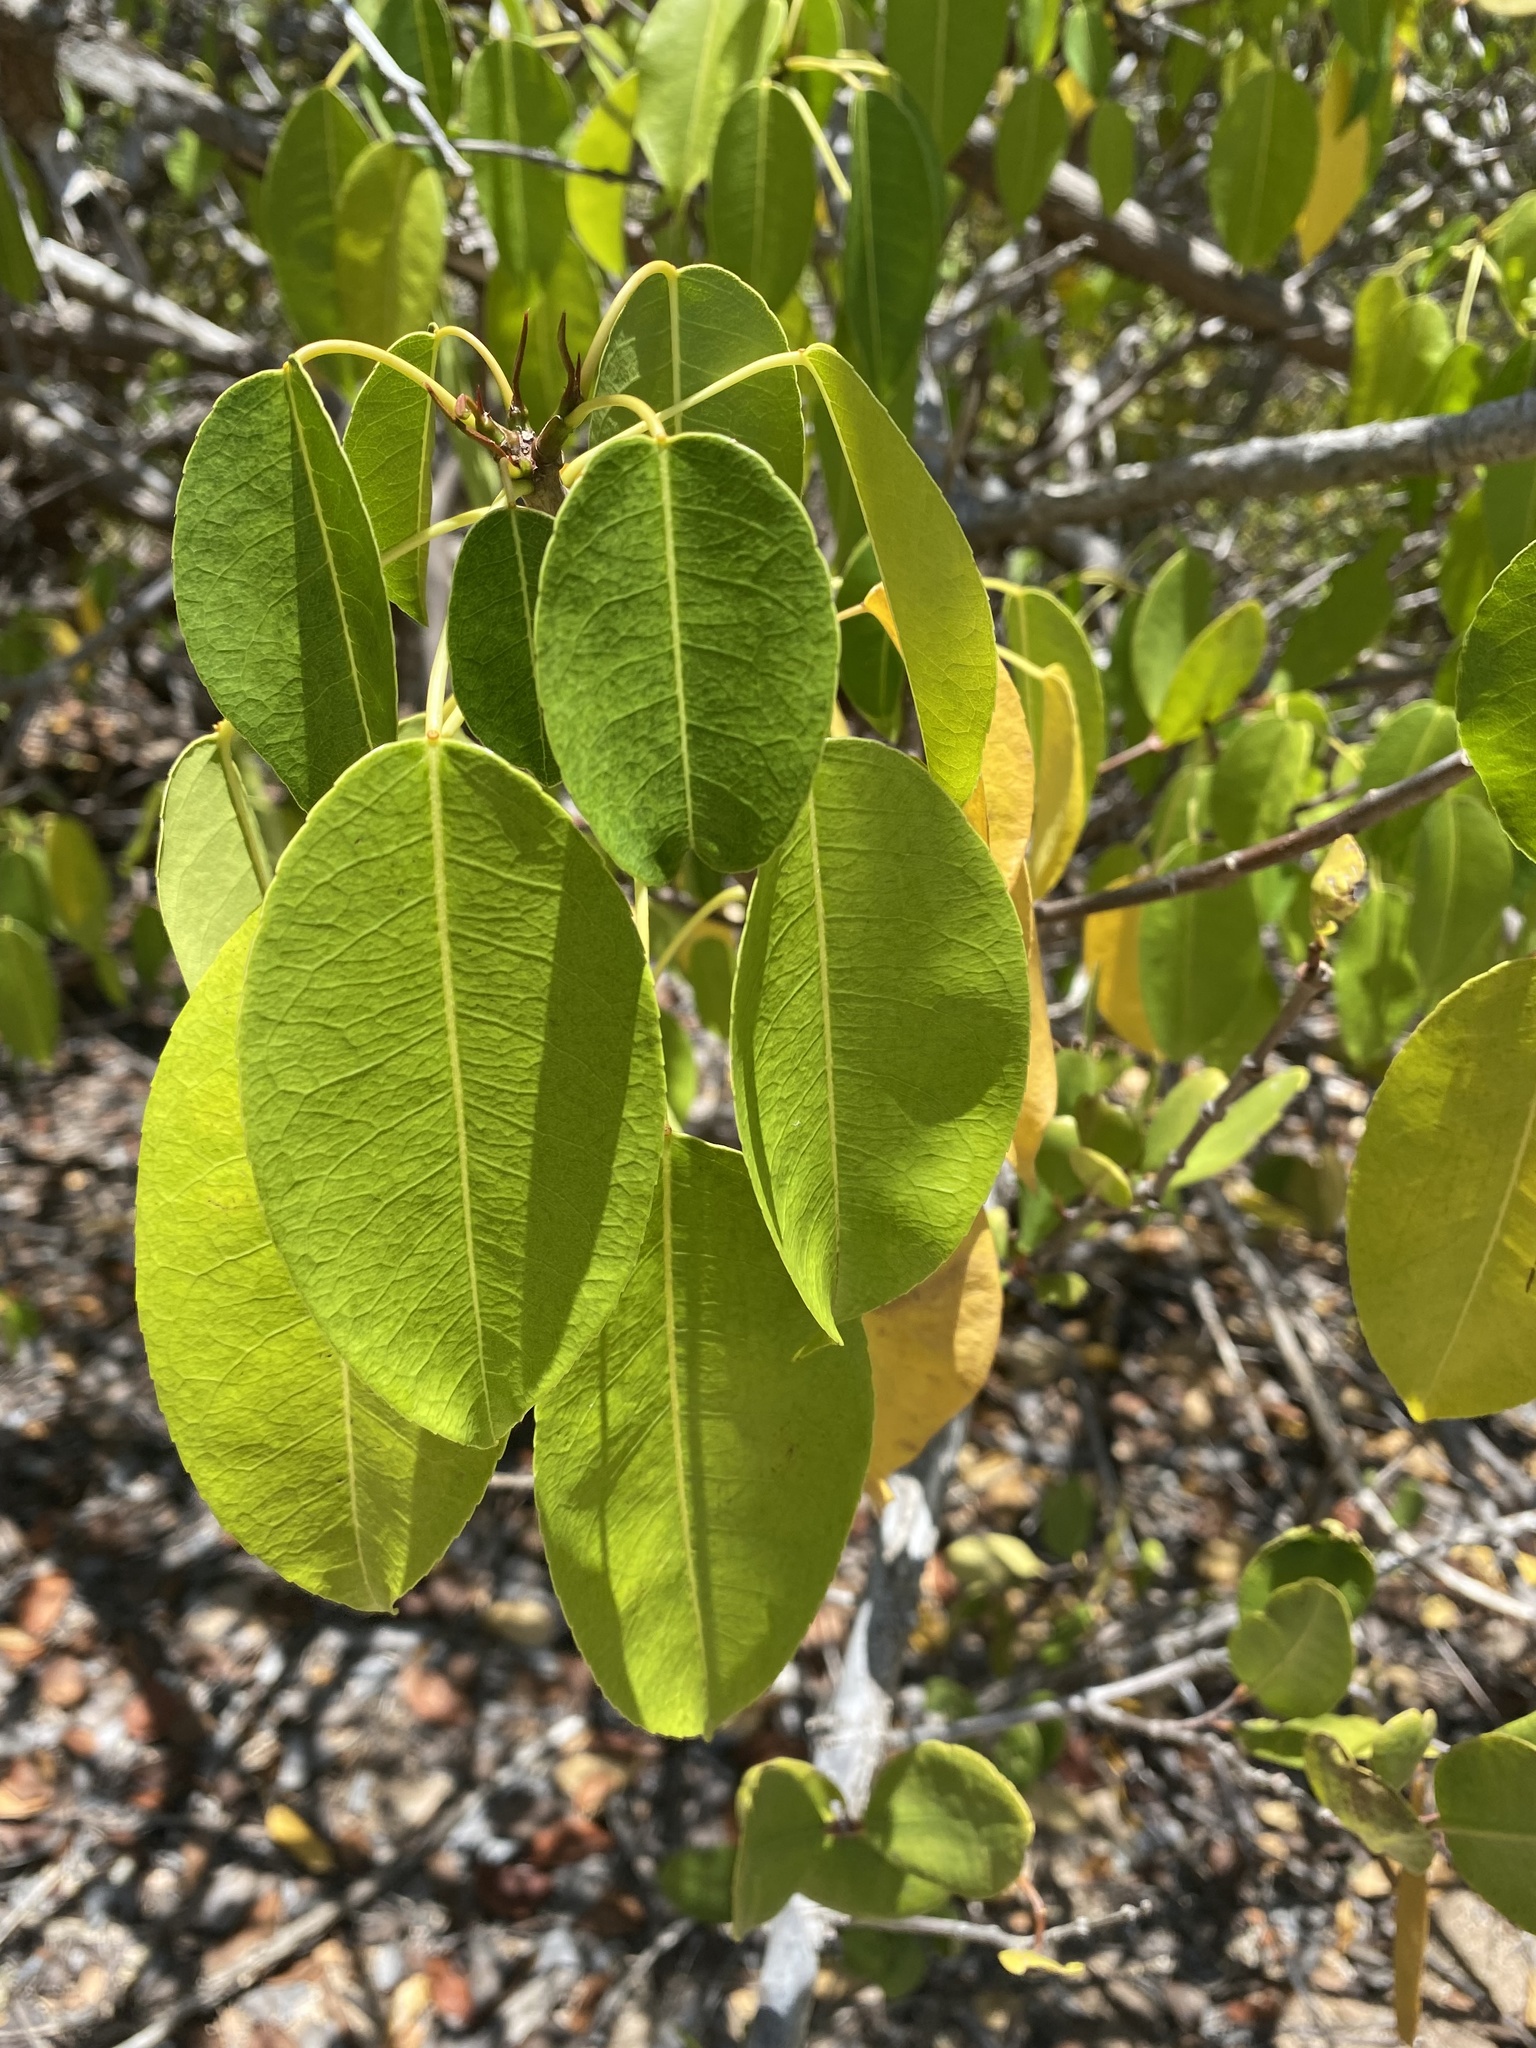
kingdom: Plantae
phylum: Tracheophyta
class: Magnoliopsida
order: Malpighiales
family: Euphorbiaceae
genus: Hippomane
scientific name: Hippomane mancinella
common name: Manchineel
